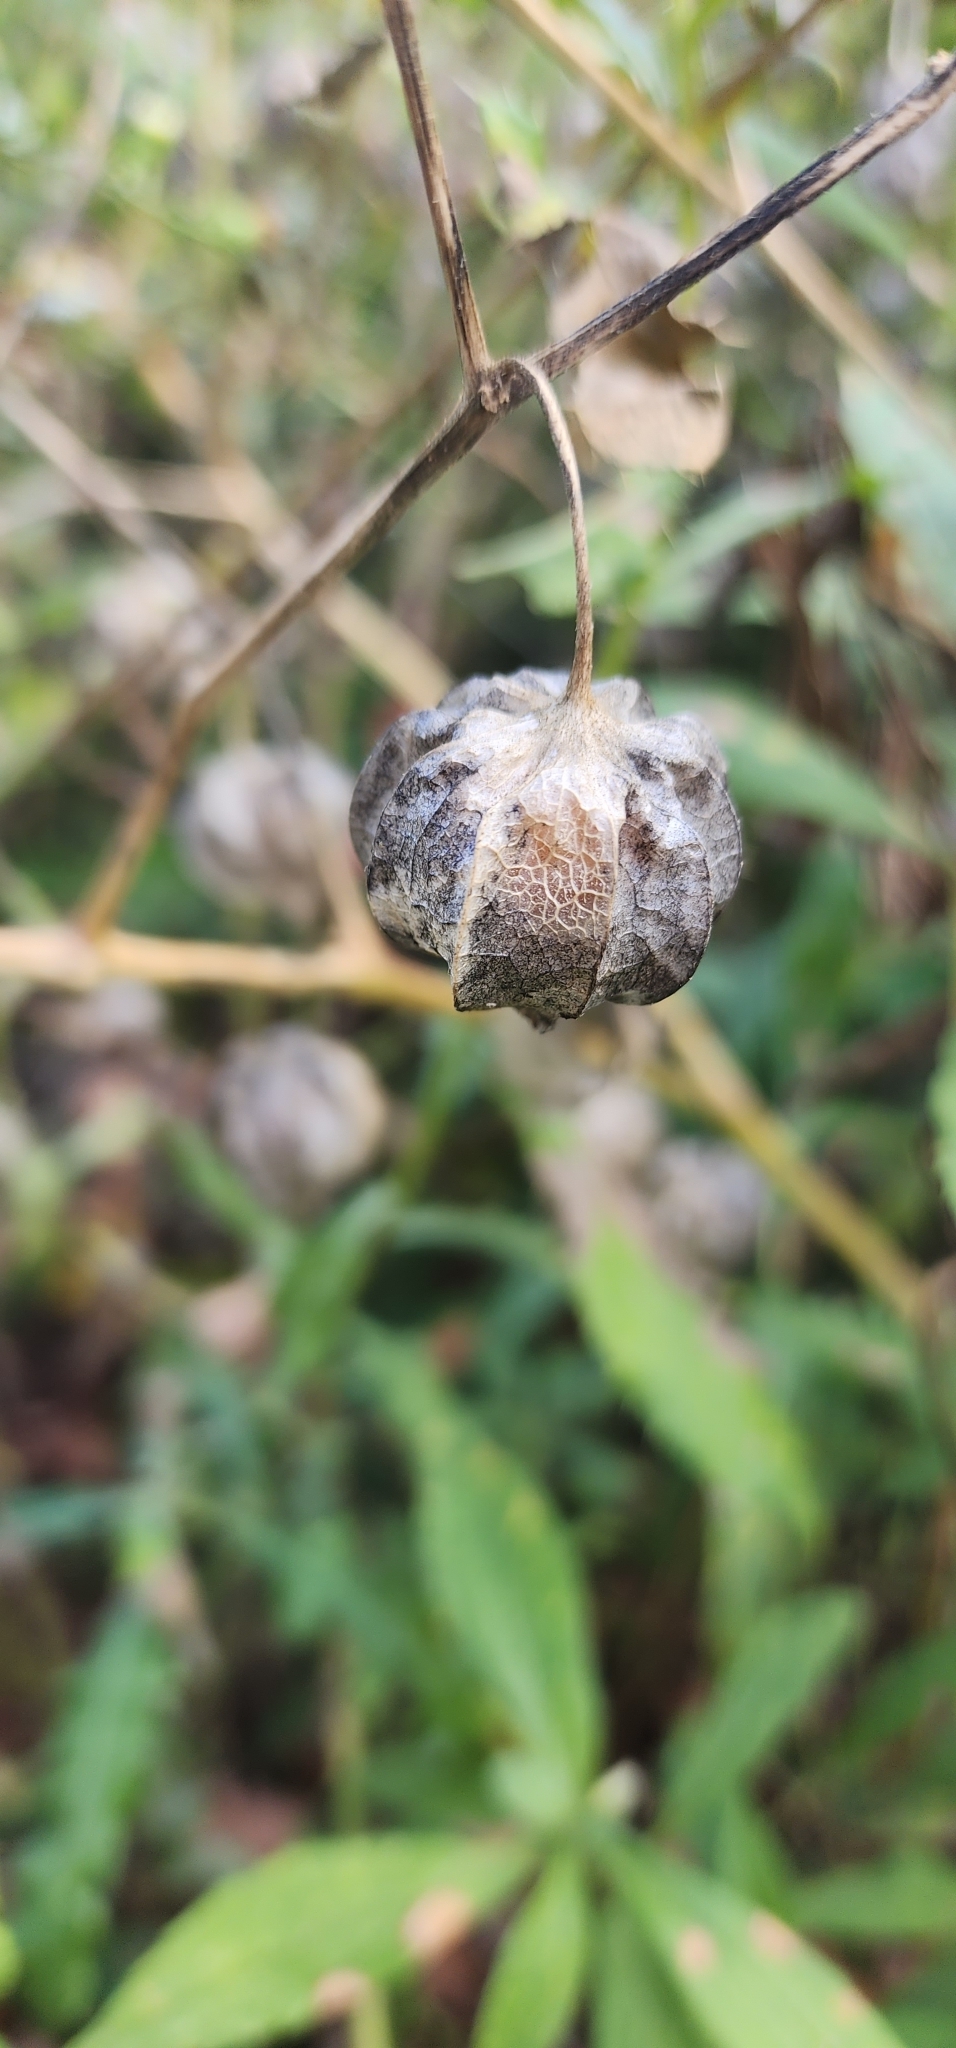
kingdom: Plantae
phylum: Tracheophyta
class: Magnoliopsida
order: Solanales
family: Solanaceae
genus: Physalis
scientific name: Physalis longifolia
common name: Common ground-cherry
